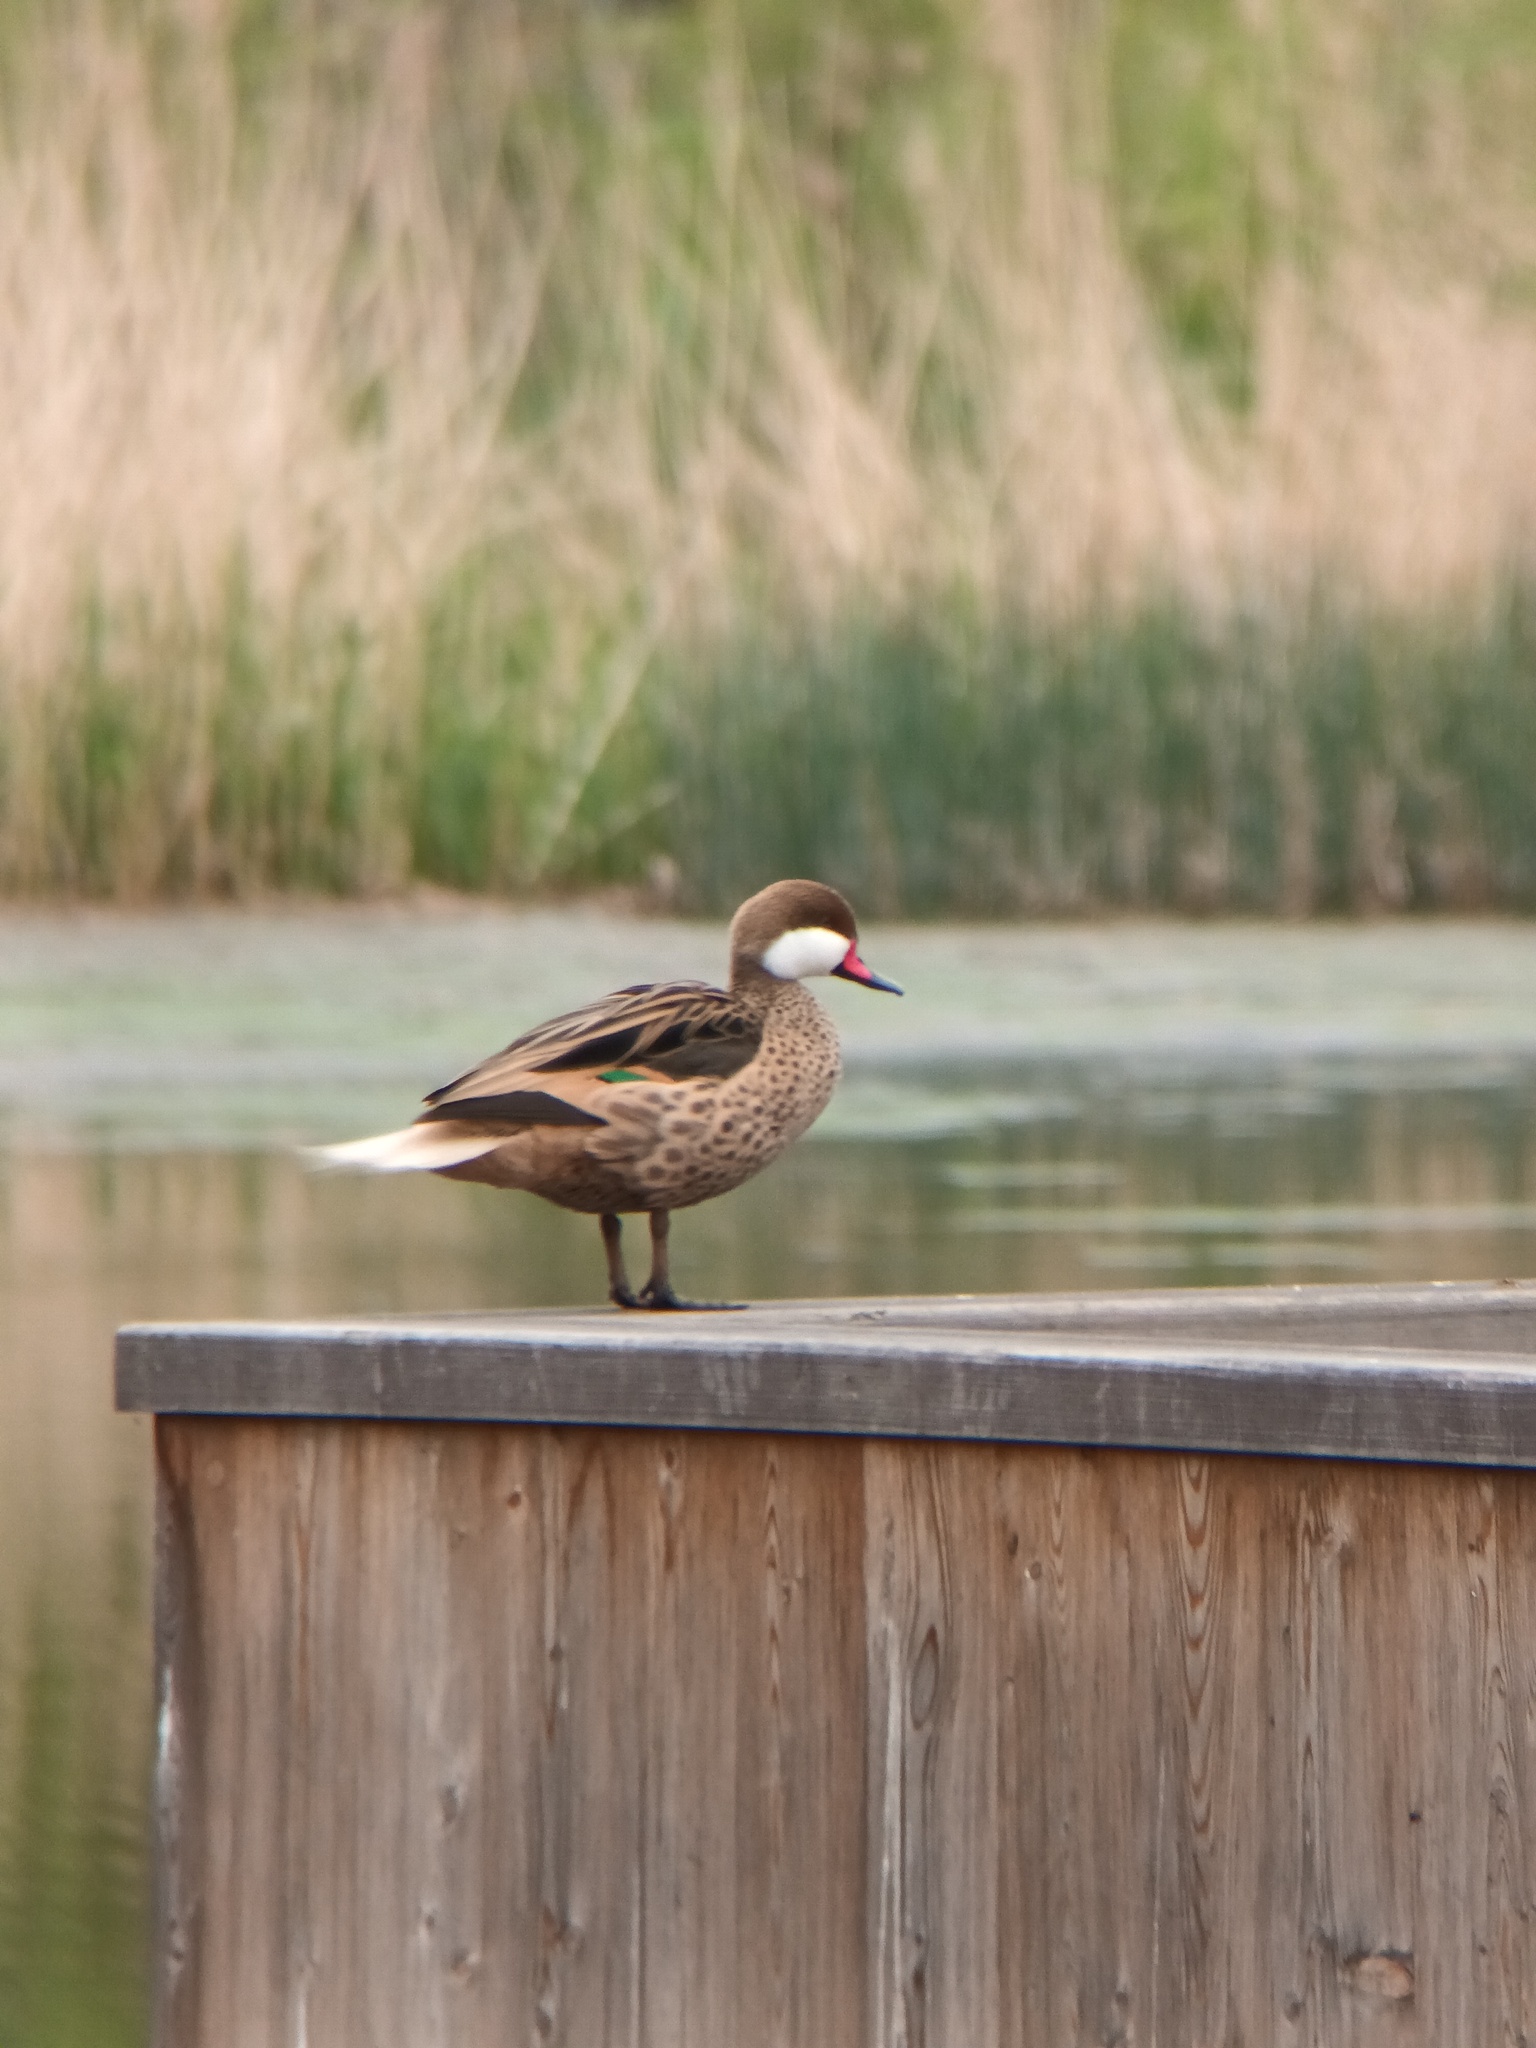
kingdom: Animalia
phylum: Chordata
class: Aves
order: Anseriformes
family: Anatidae
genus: Anas
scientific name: Anas bahamensis
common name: White-cheeked pintail
